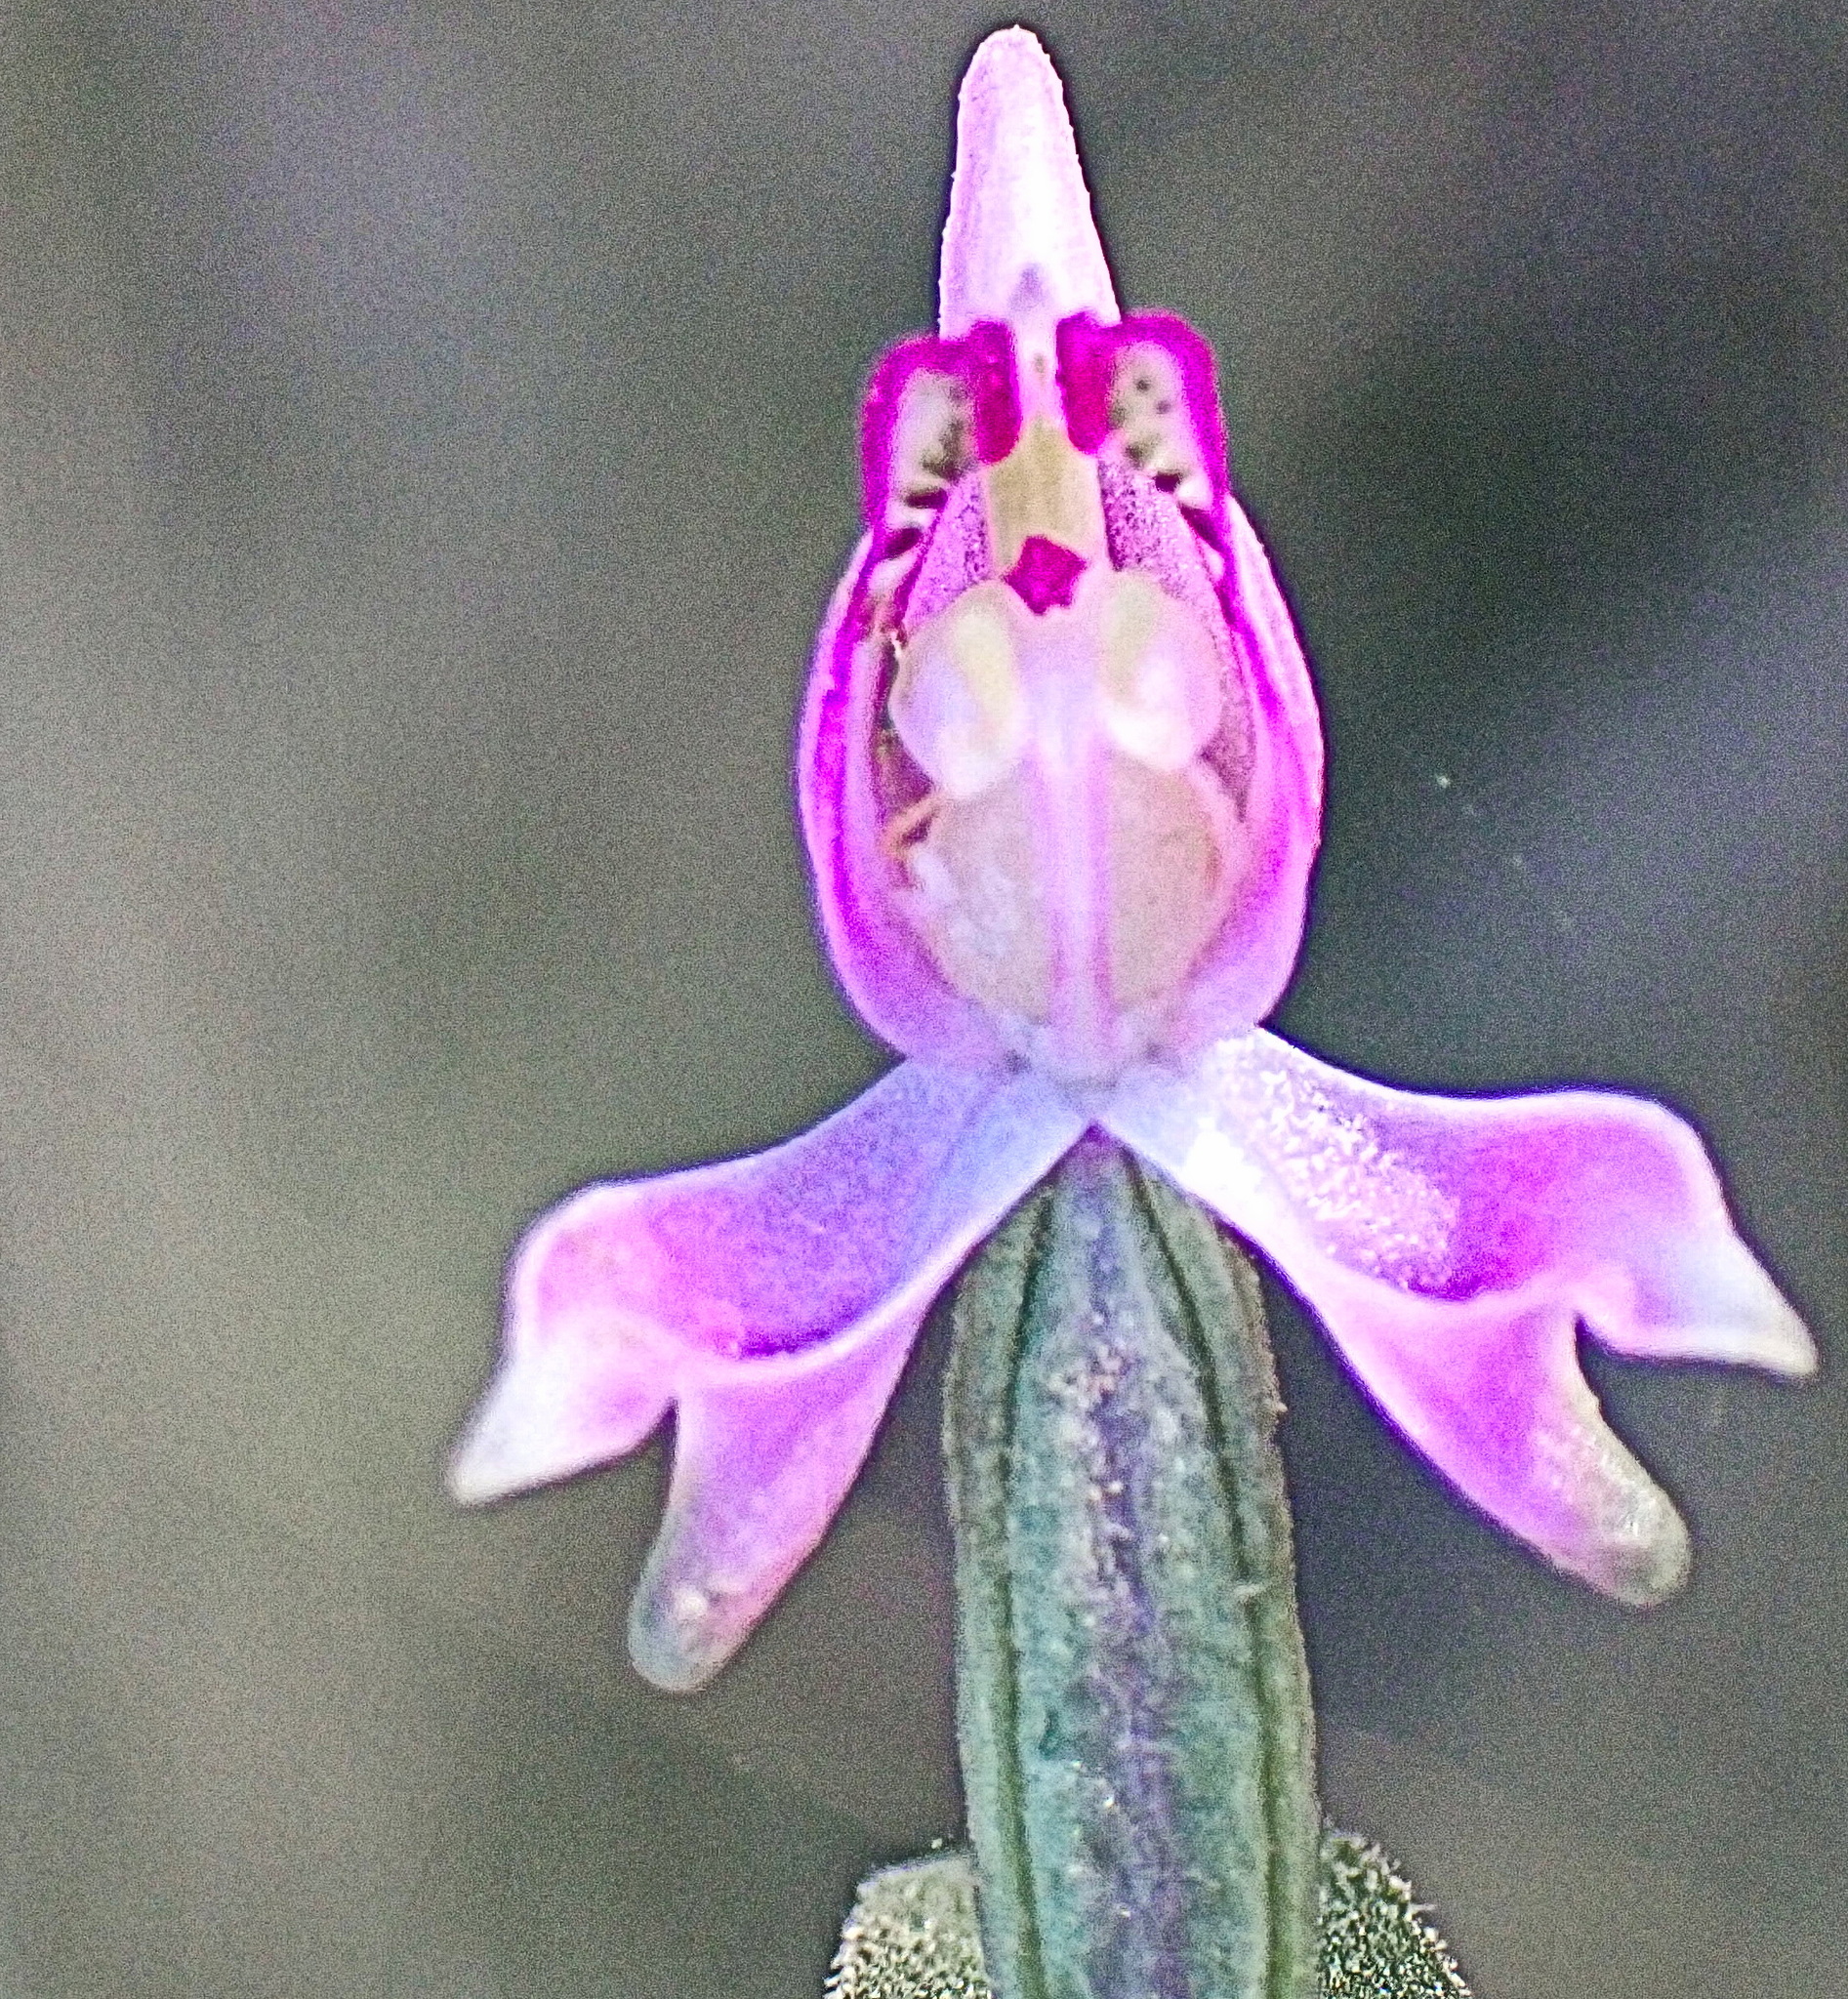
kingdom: Plantae
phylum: Tracheophyta
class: Liliopsida
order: Asparagales
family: Orchidaceae
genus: Disperis
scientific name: Disperis macowanii
